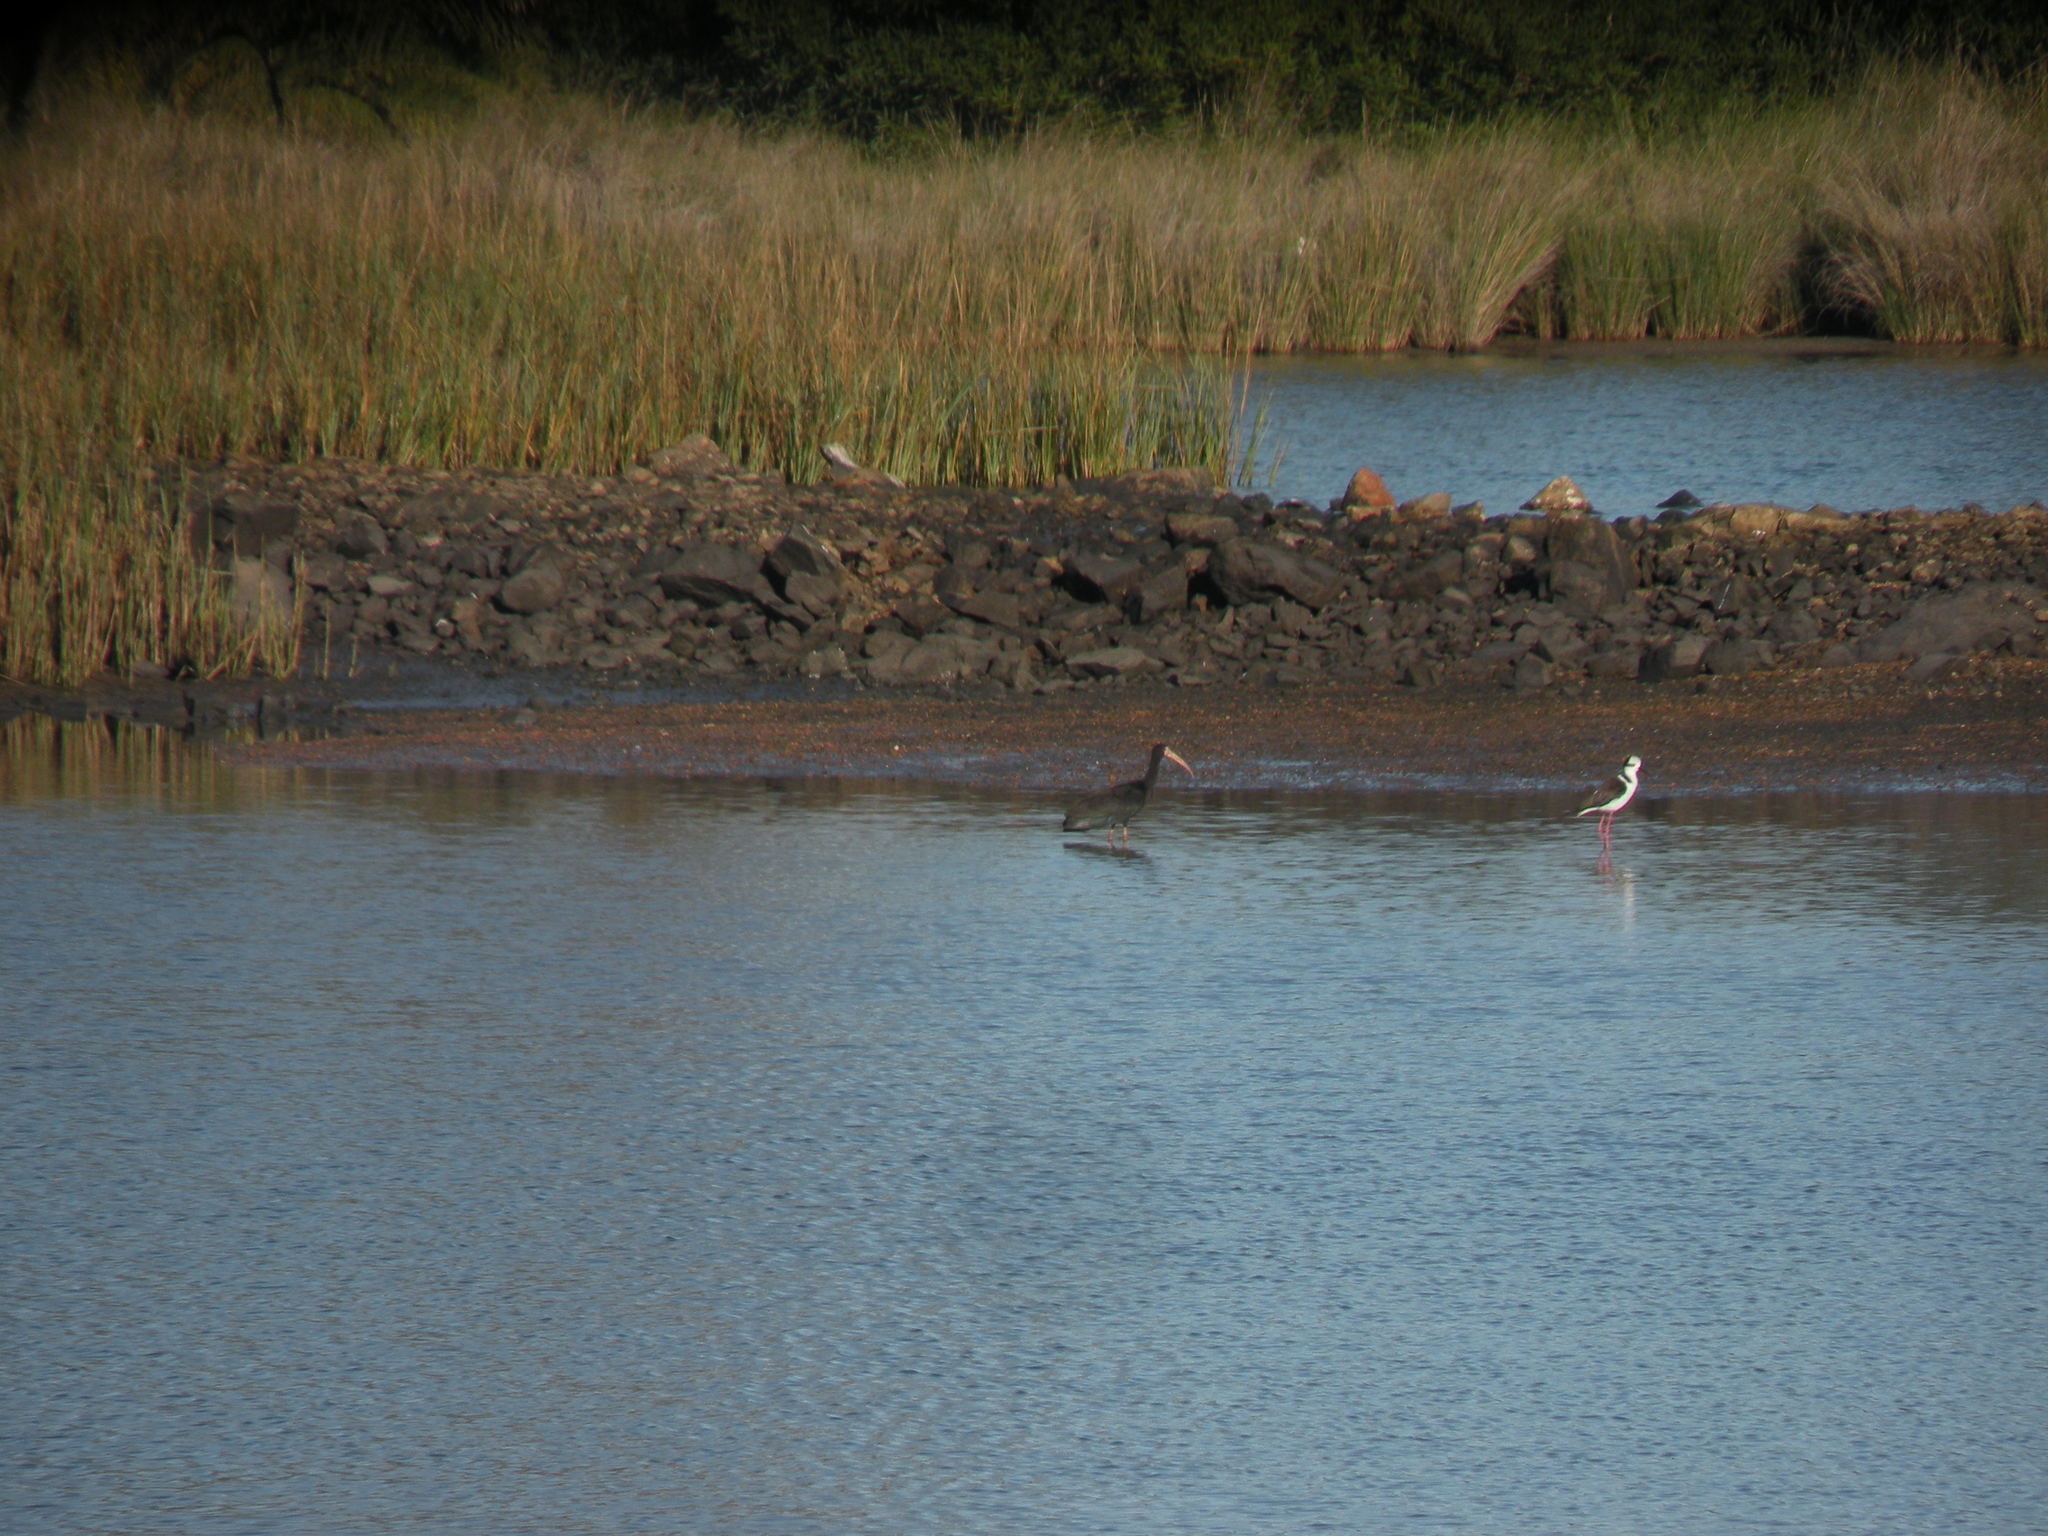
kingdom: Animalia
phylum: Chordata
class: Aves
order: Charadriiformes
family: Recurvirostridae
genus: Himantopus
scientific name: Himantopus mexicanus
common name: Black-necked stilt
